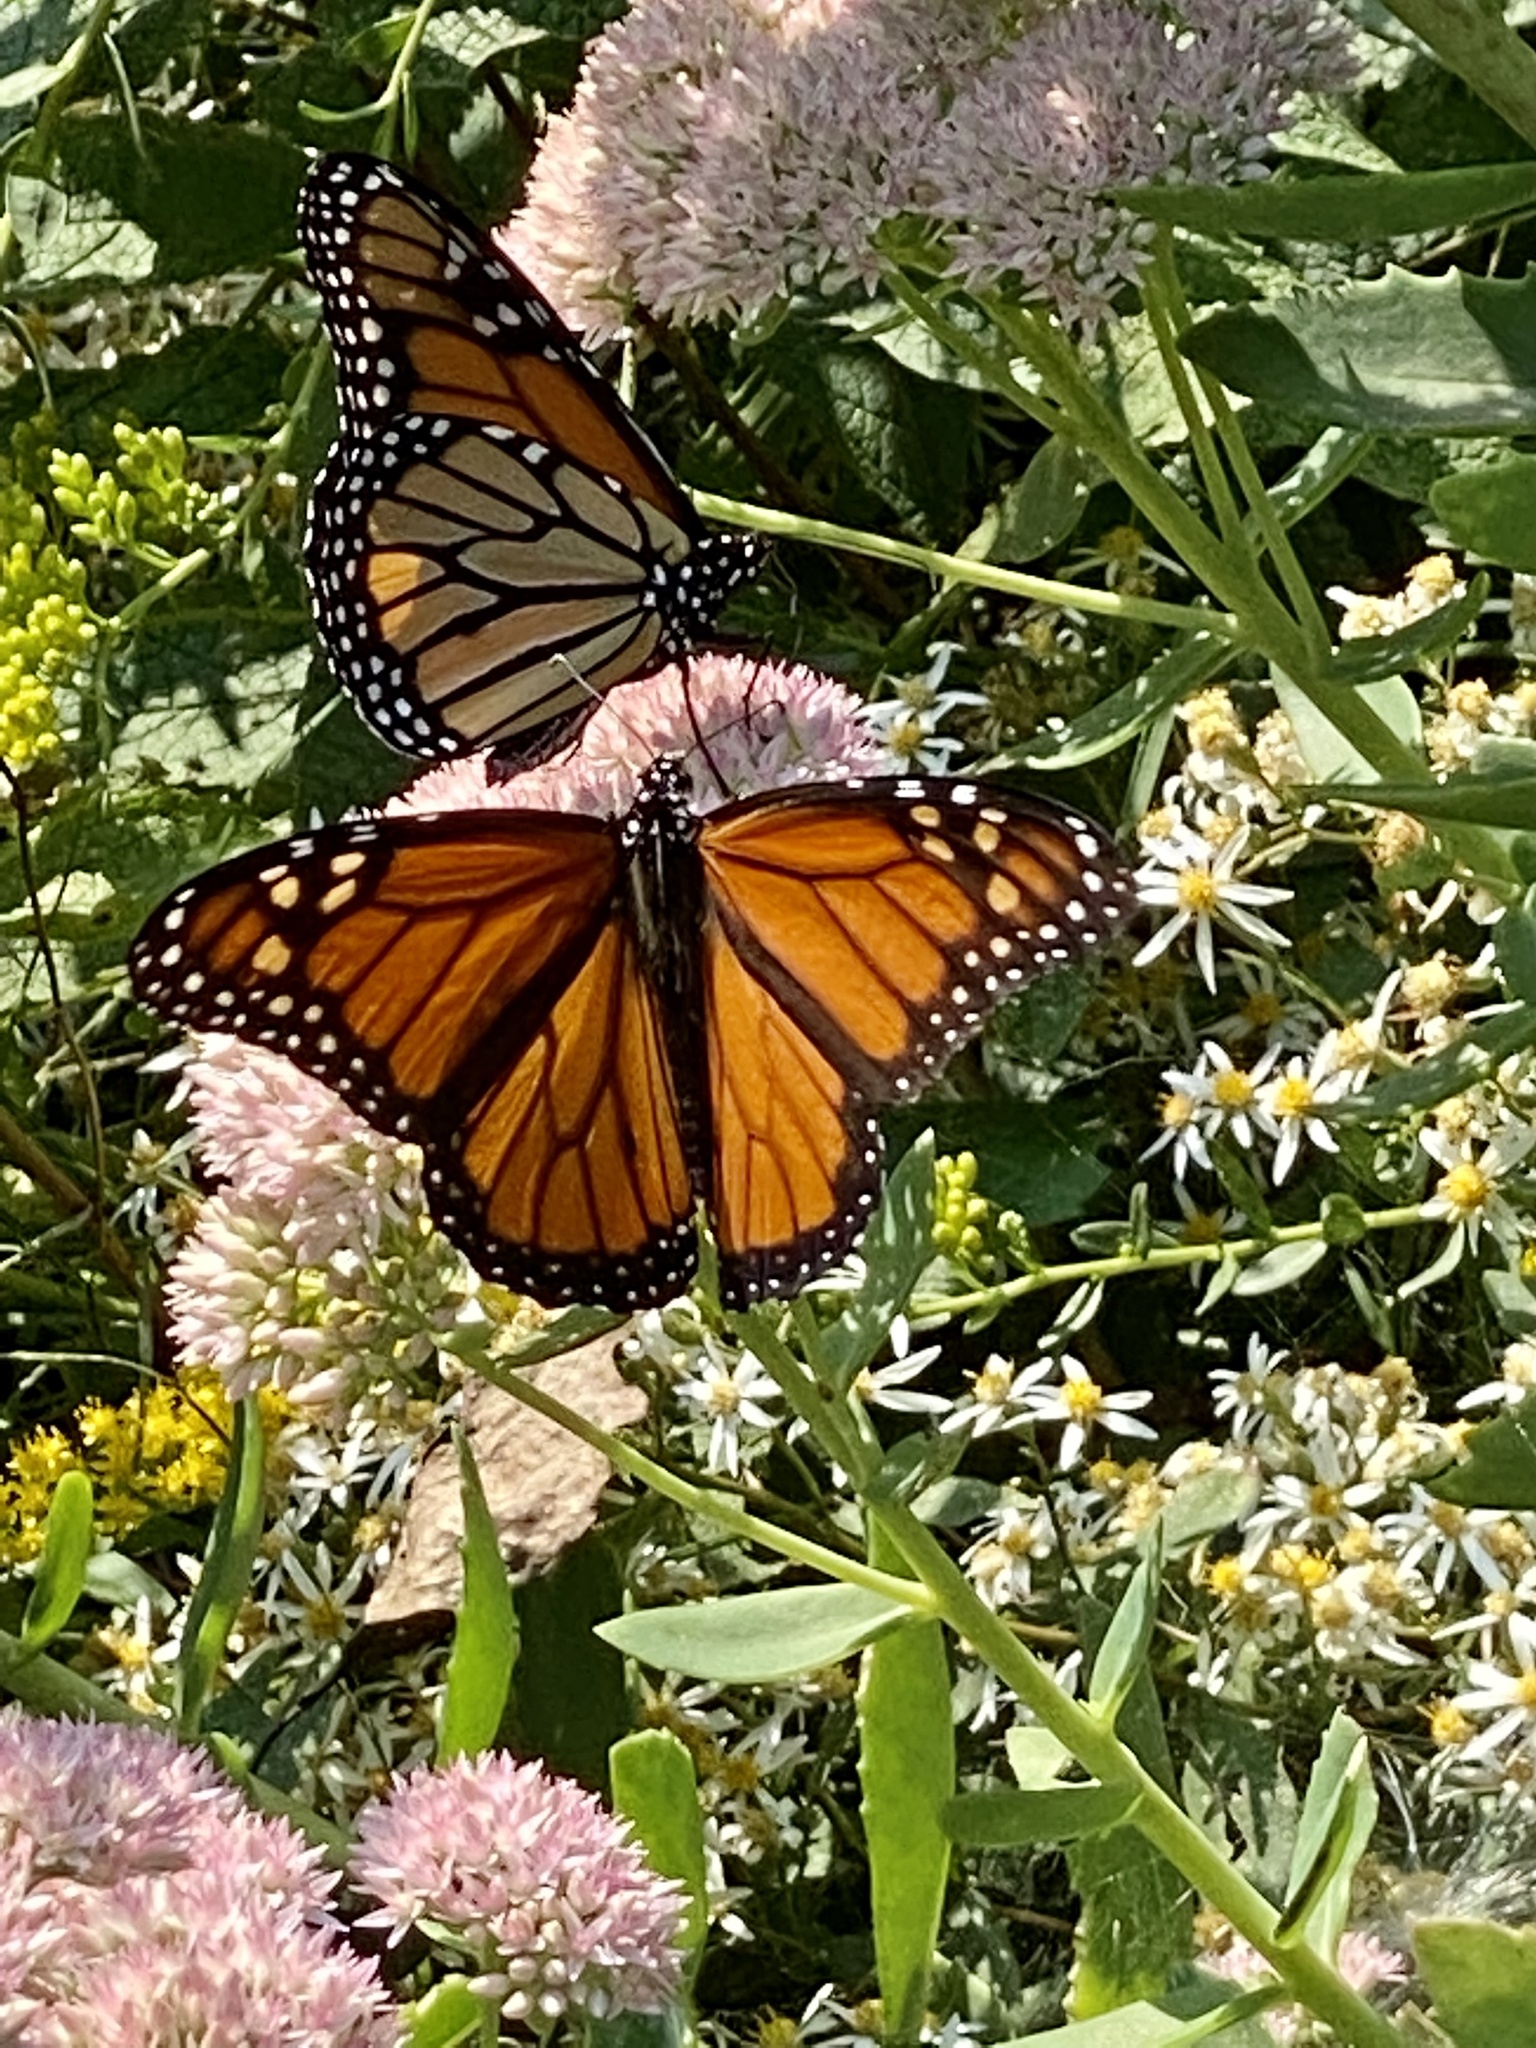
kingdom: Animalia
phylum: Arthropoda
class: Insecta
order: Lepidoptera
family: Nymphalidae
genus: Danaus
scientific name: Danaus plexippus
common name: Monarch
